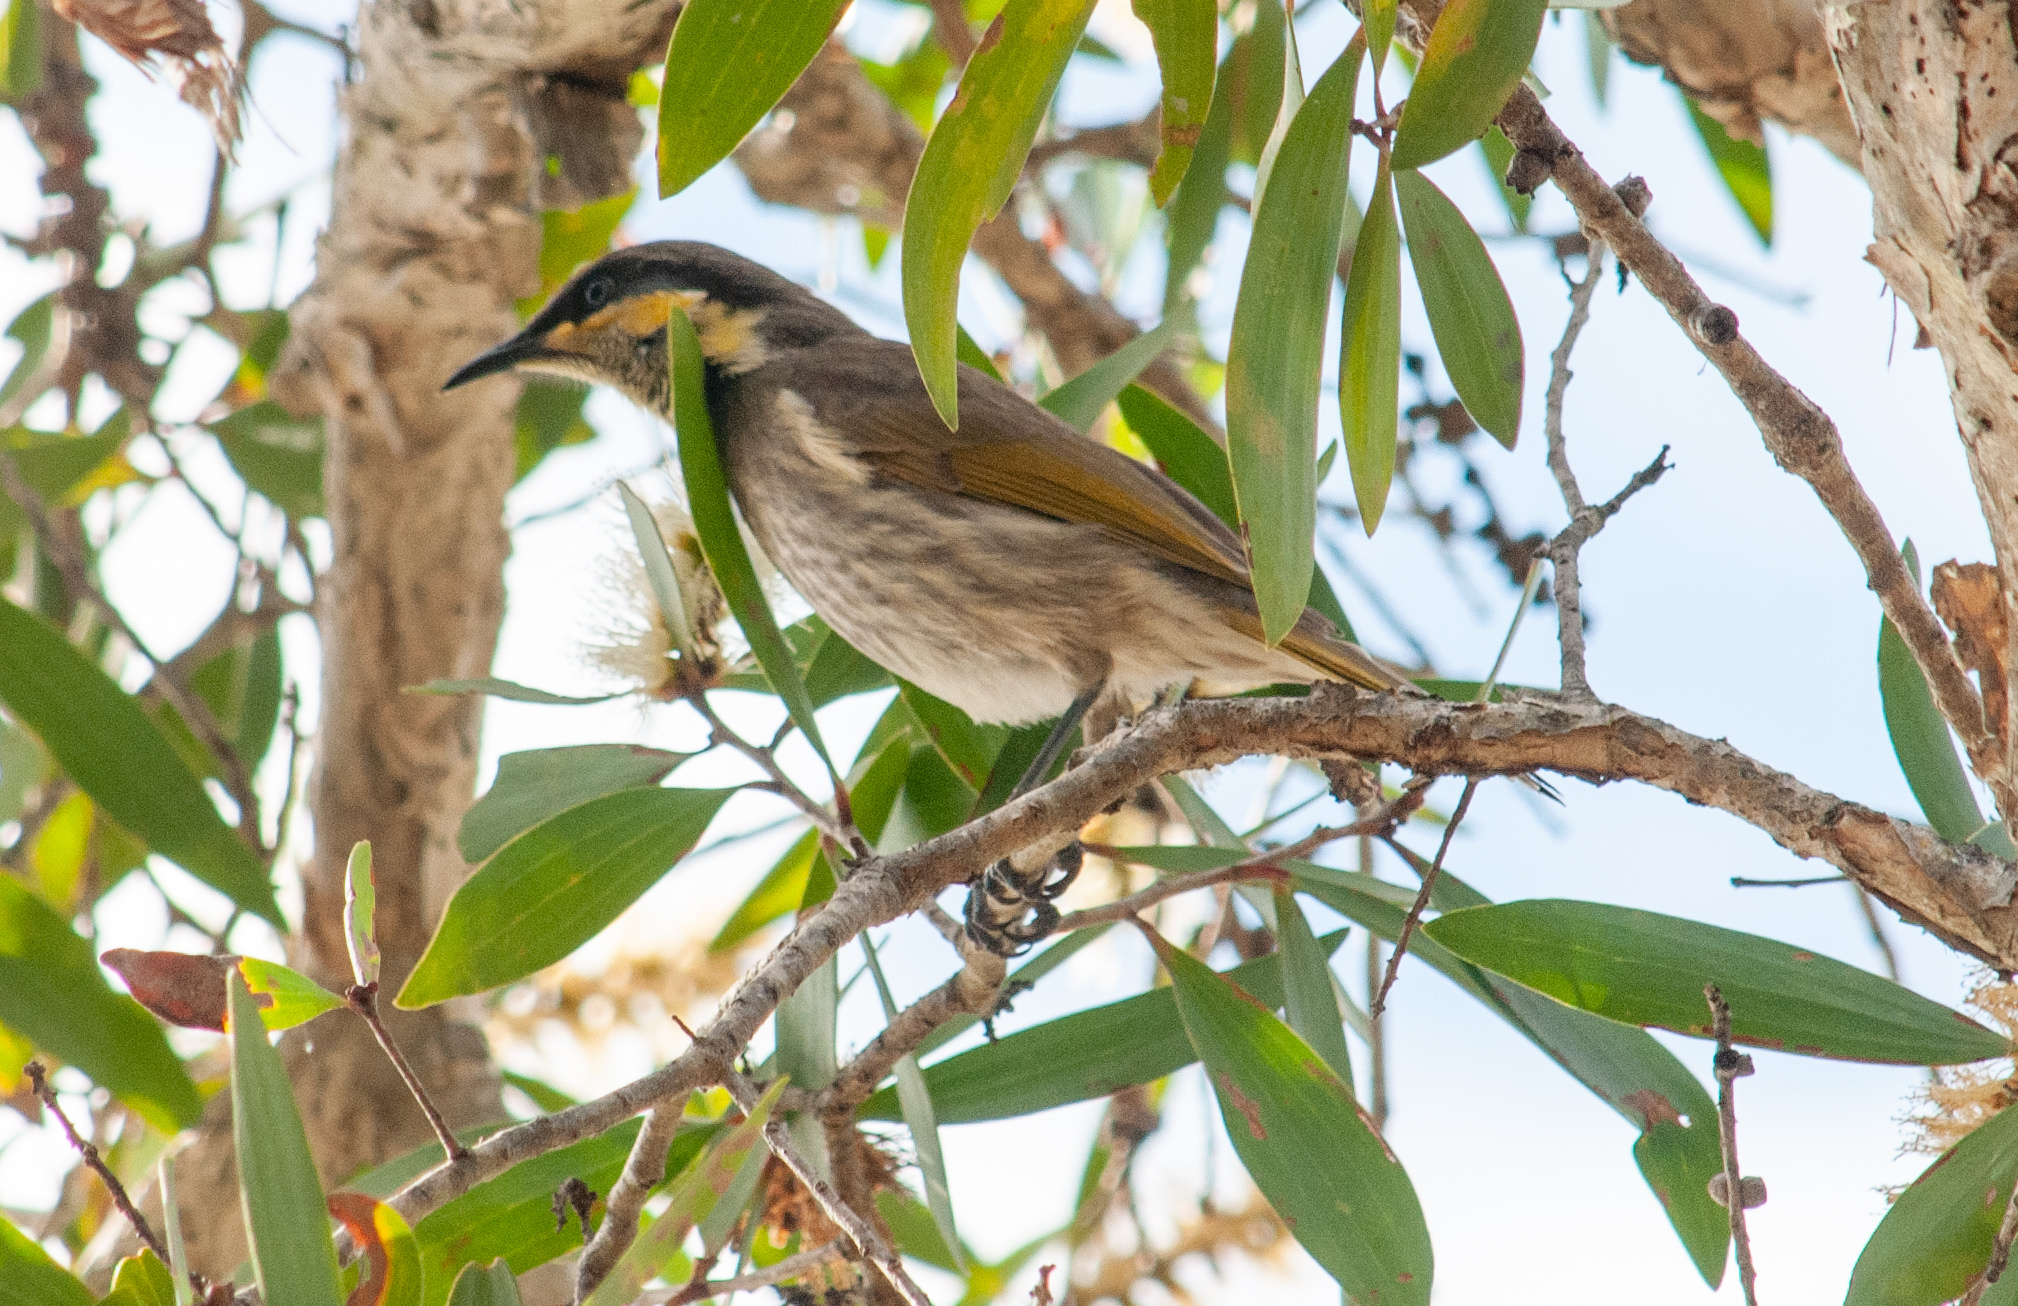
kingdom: Animalia
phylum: Chordata
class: Aves
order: Passeriformes
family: Meliphagidae
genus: Gavicalis
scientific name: Gavicalis fasciogularis
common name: Mangrove honeyeater
